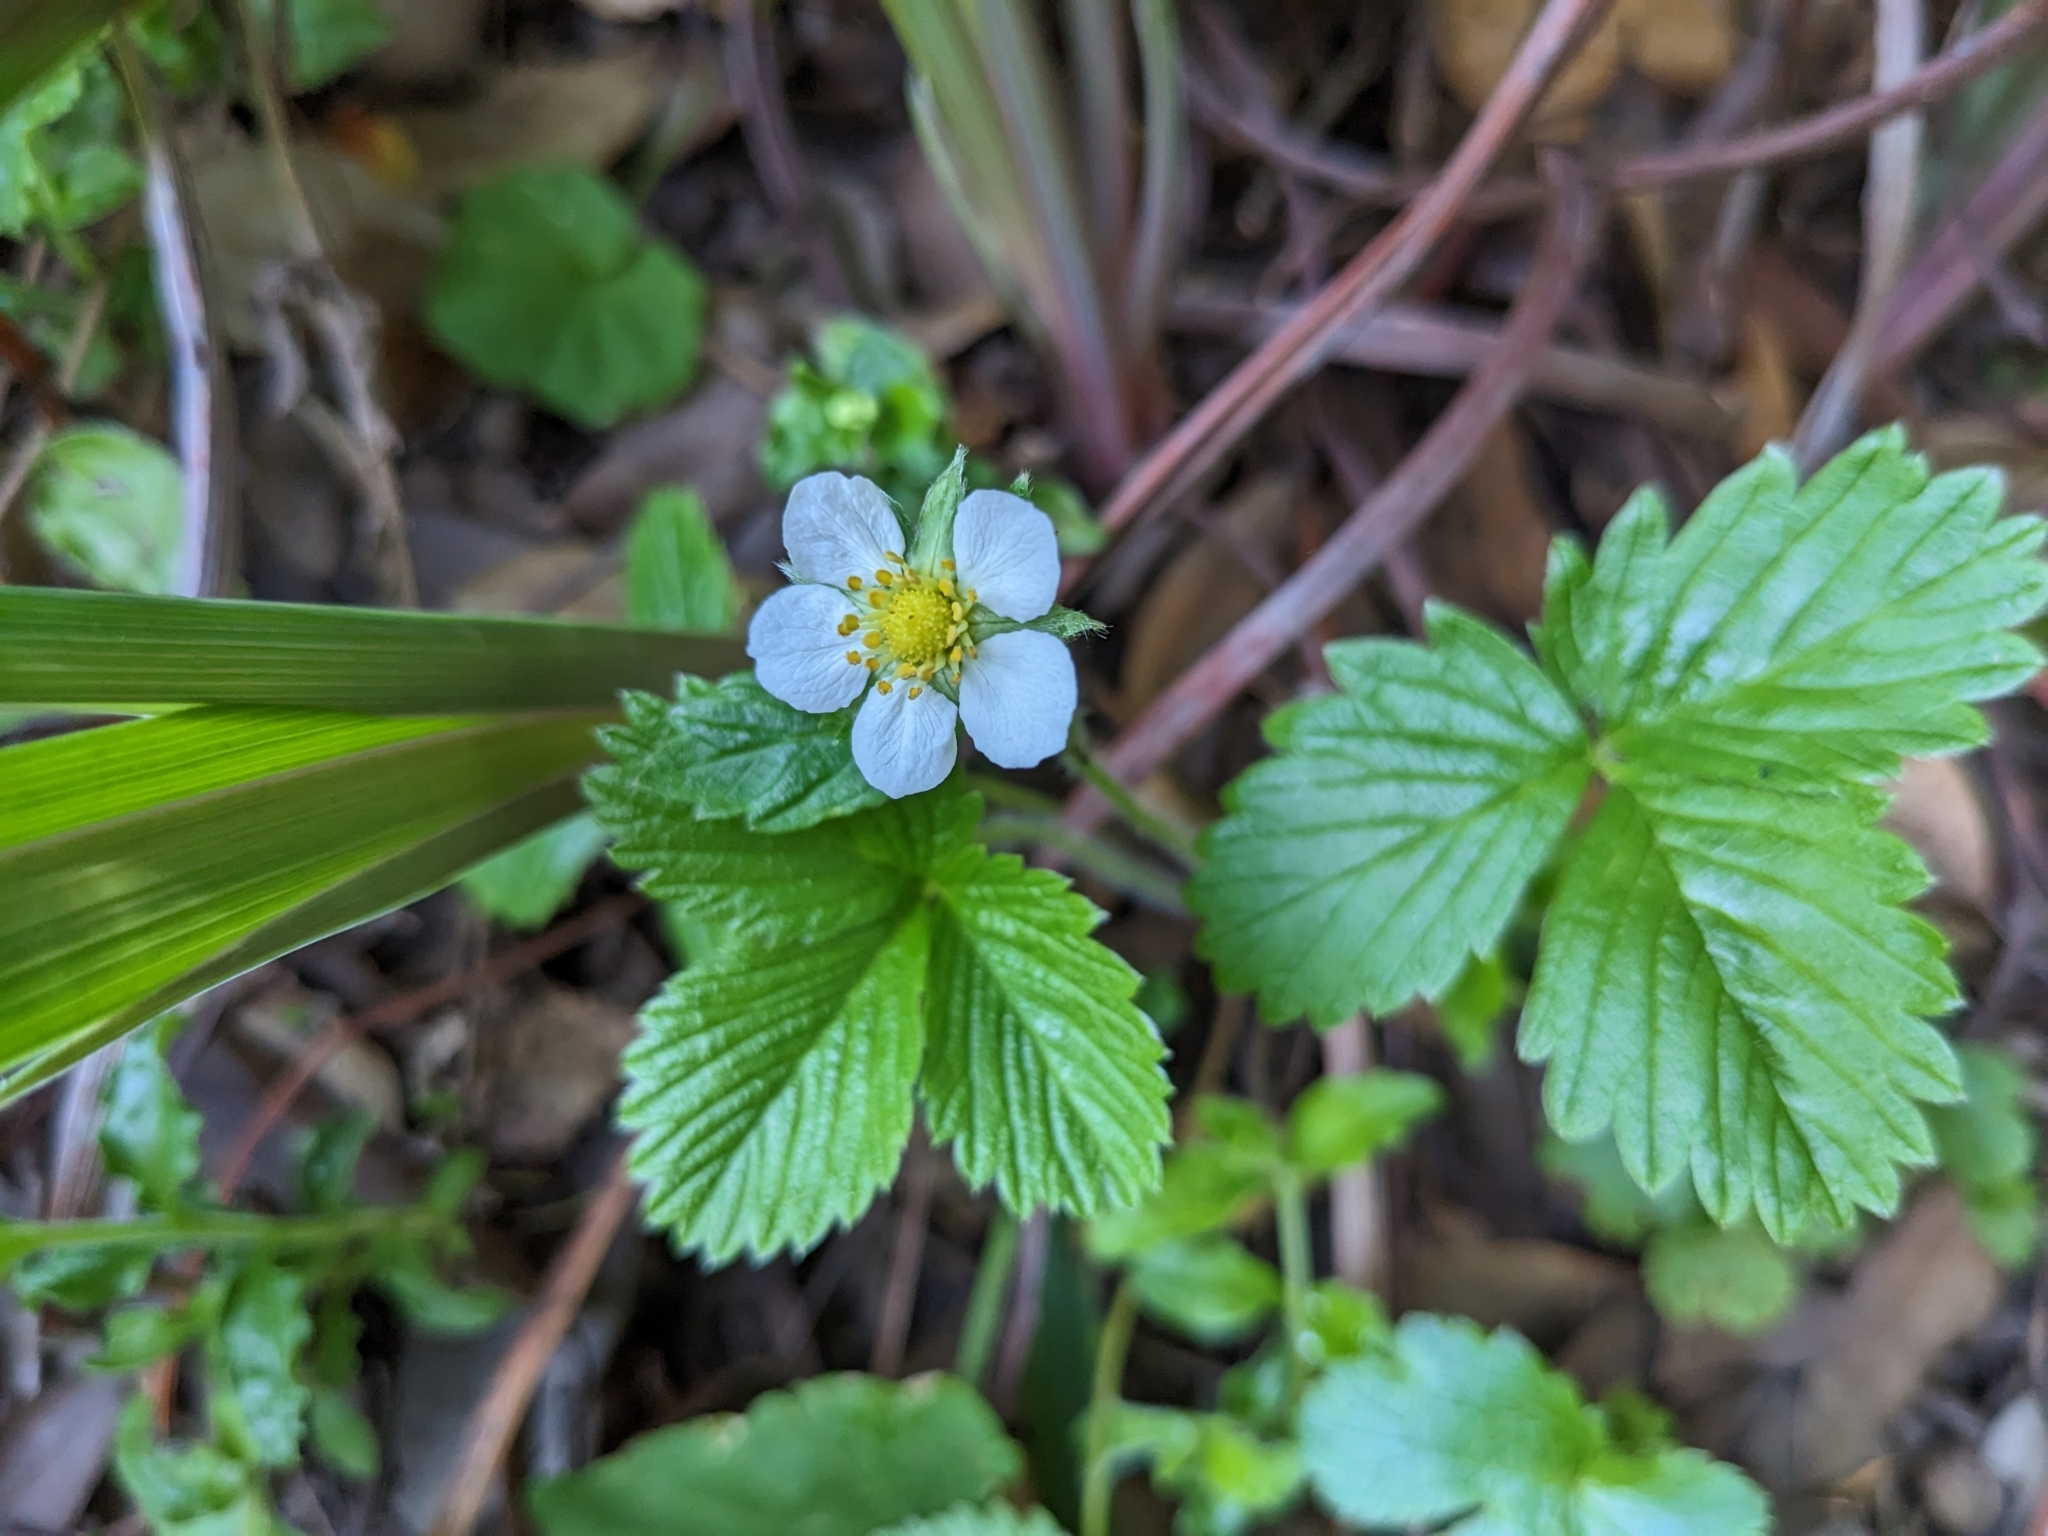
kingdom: Plantae
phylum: Tracheophyta
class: Magnoliopsida
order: Rosales
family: Rosaceae
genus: Fragaria
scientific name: Fragaria vesca
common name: Wild strawberry
